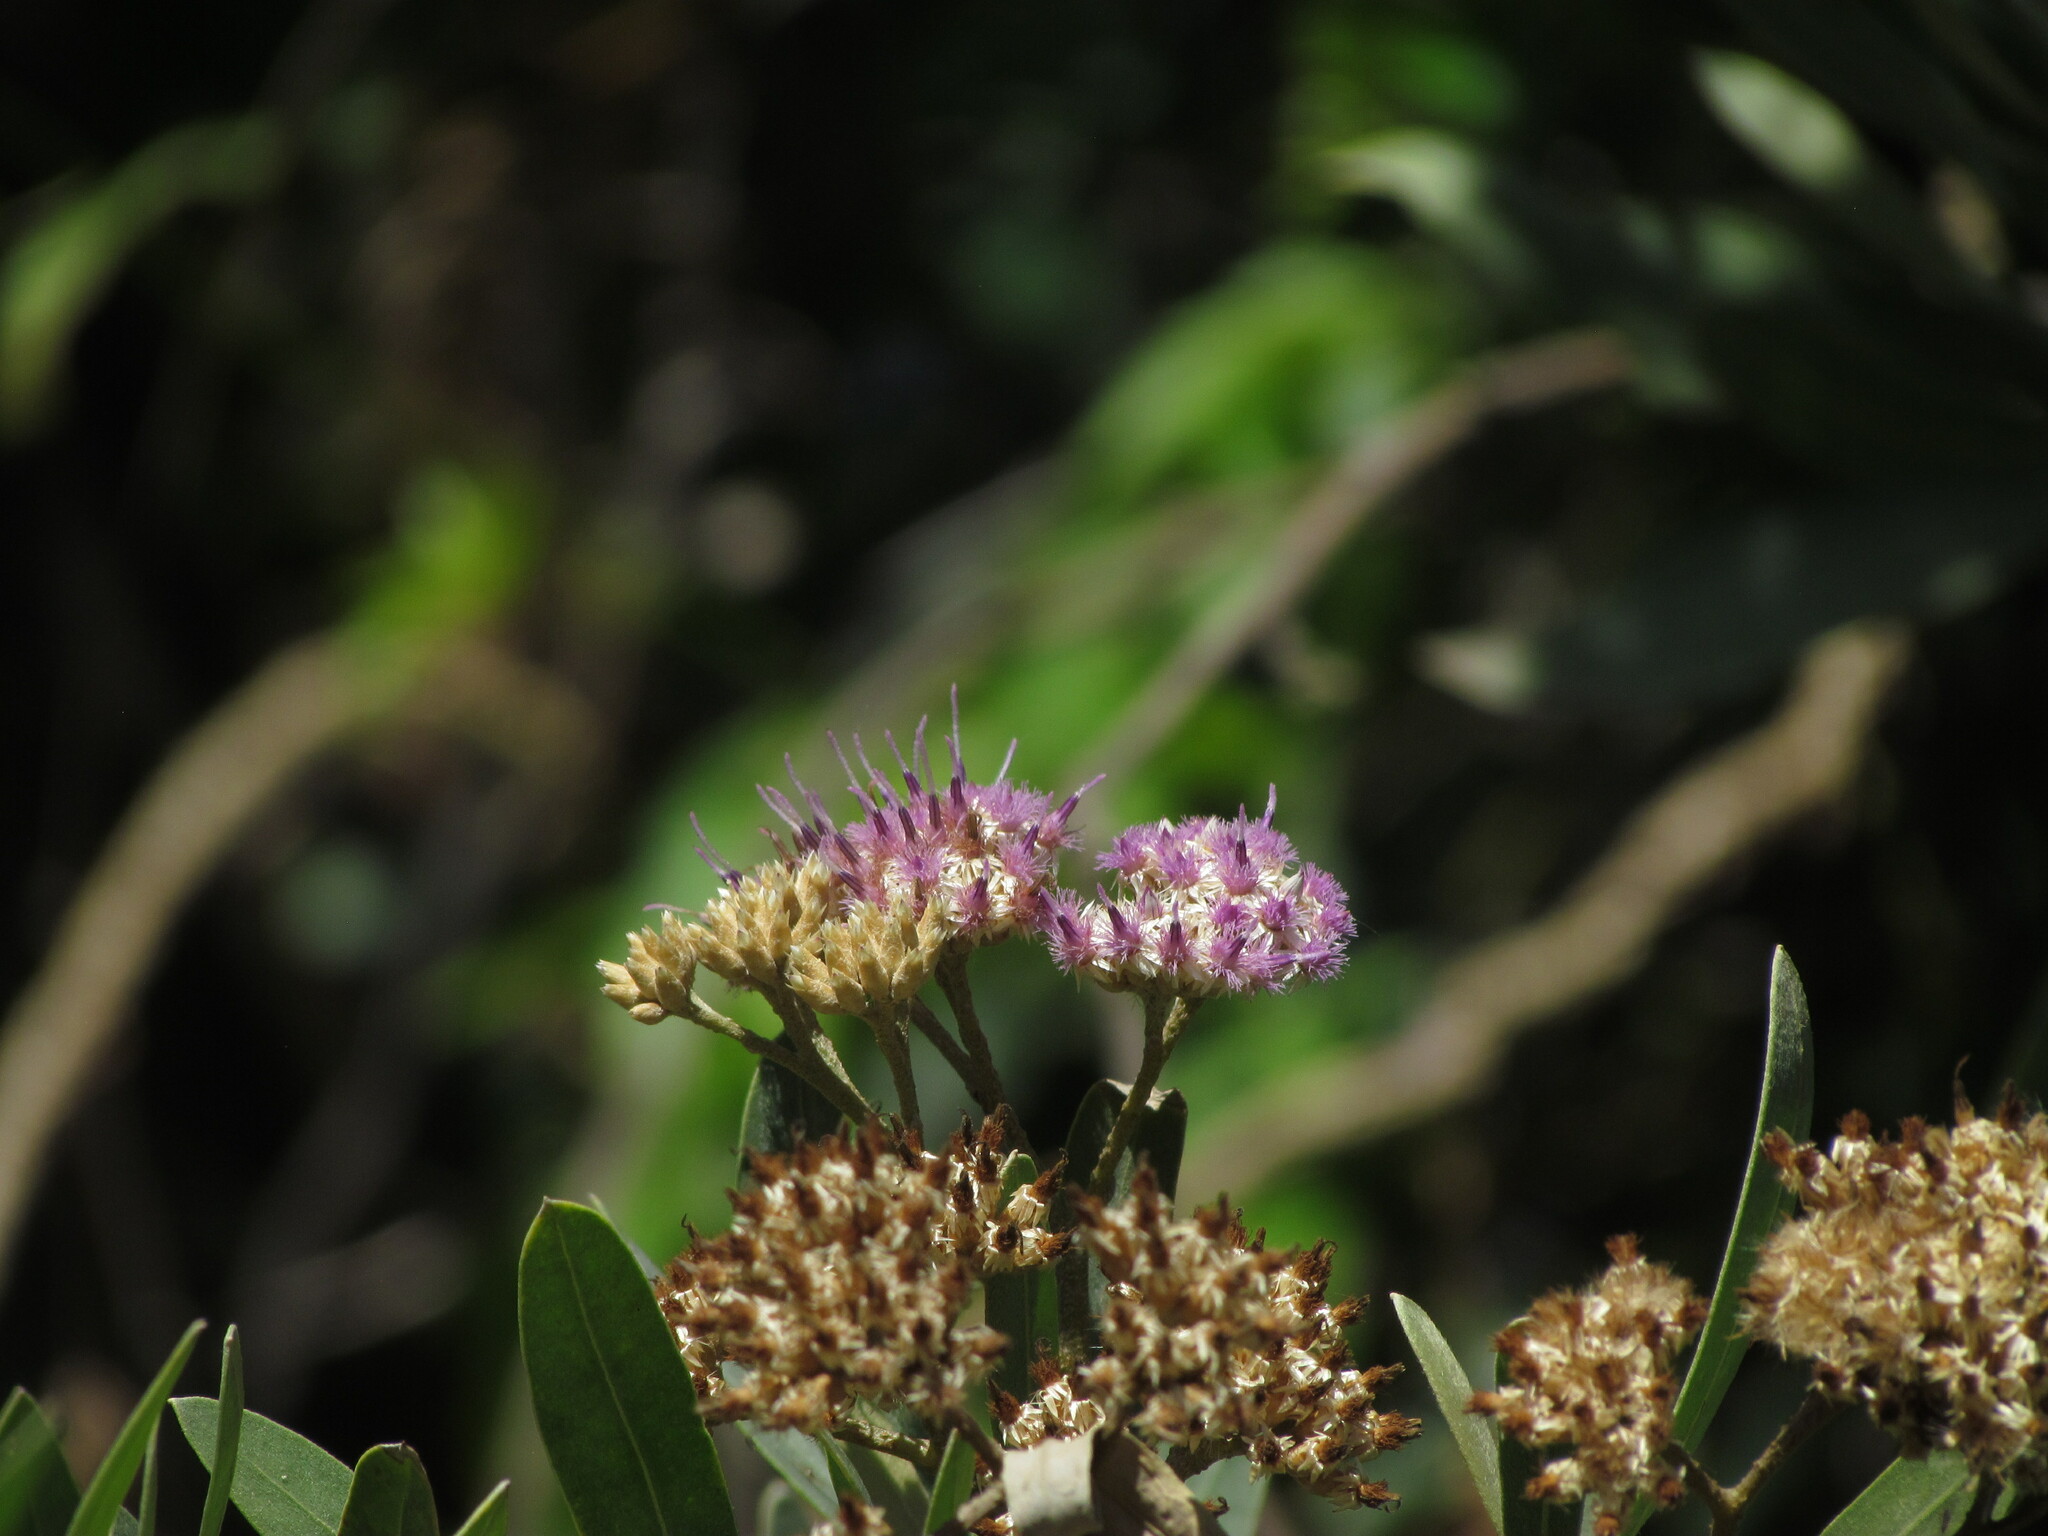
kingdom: Plantae
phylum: Tracheophyta
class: Magnoliopsida
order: Asterales
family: Asteraceae
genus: Tessaria
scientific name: Tessaria integrifolia
